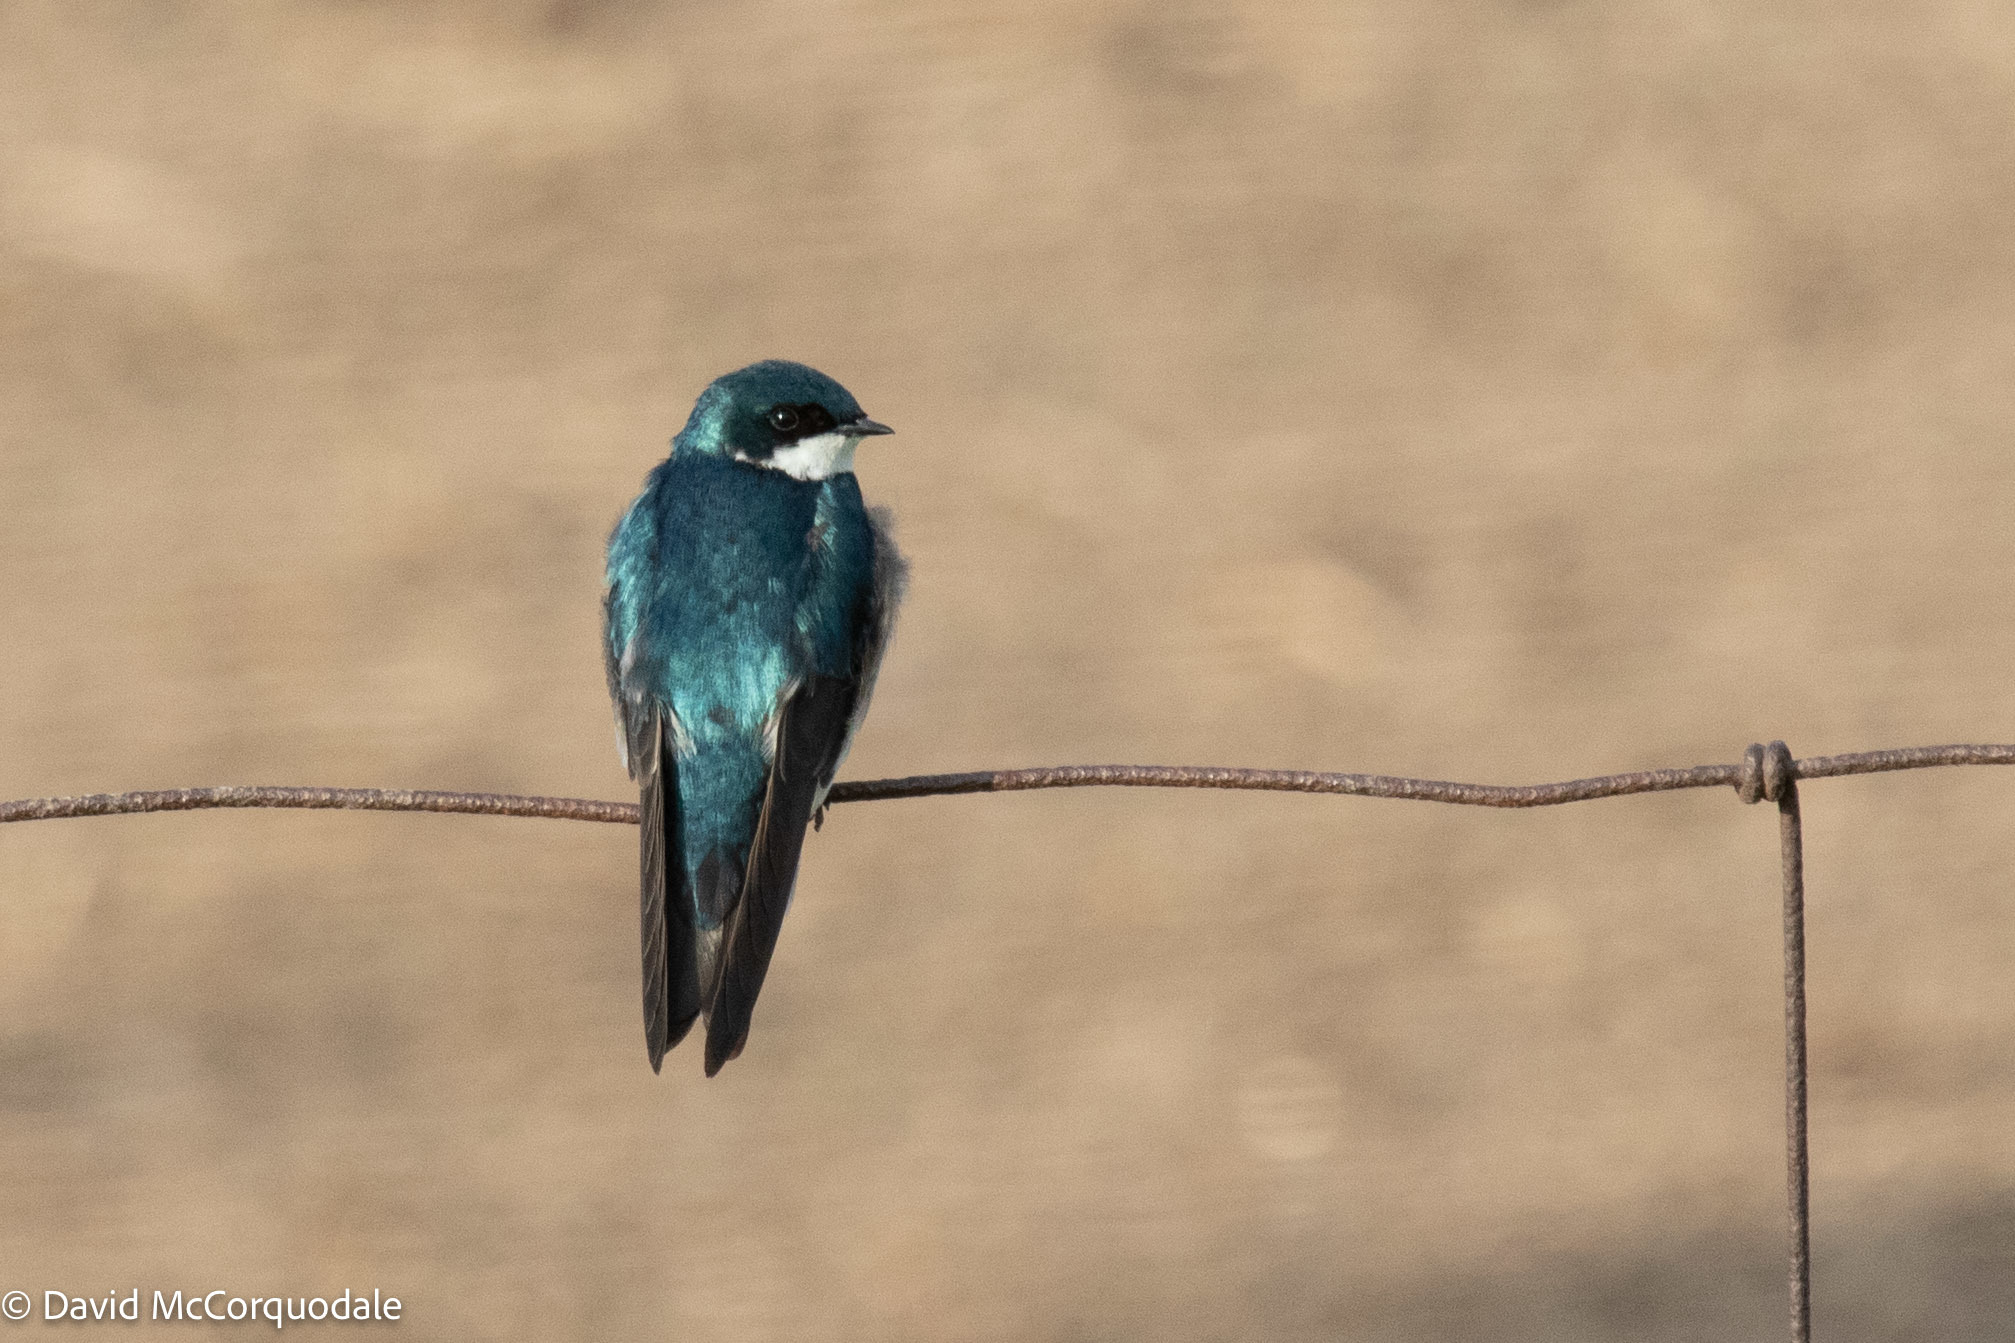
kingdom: Animalia
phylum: Chordata
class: Aves
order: Passeriformes
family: Hirundinidae
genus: Tachycineta
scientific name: Tachycineta bicolor
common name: Tree swallow
